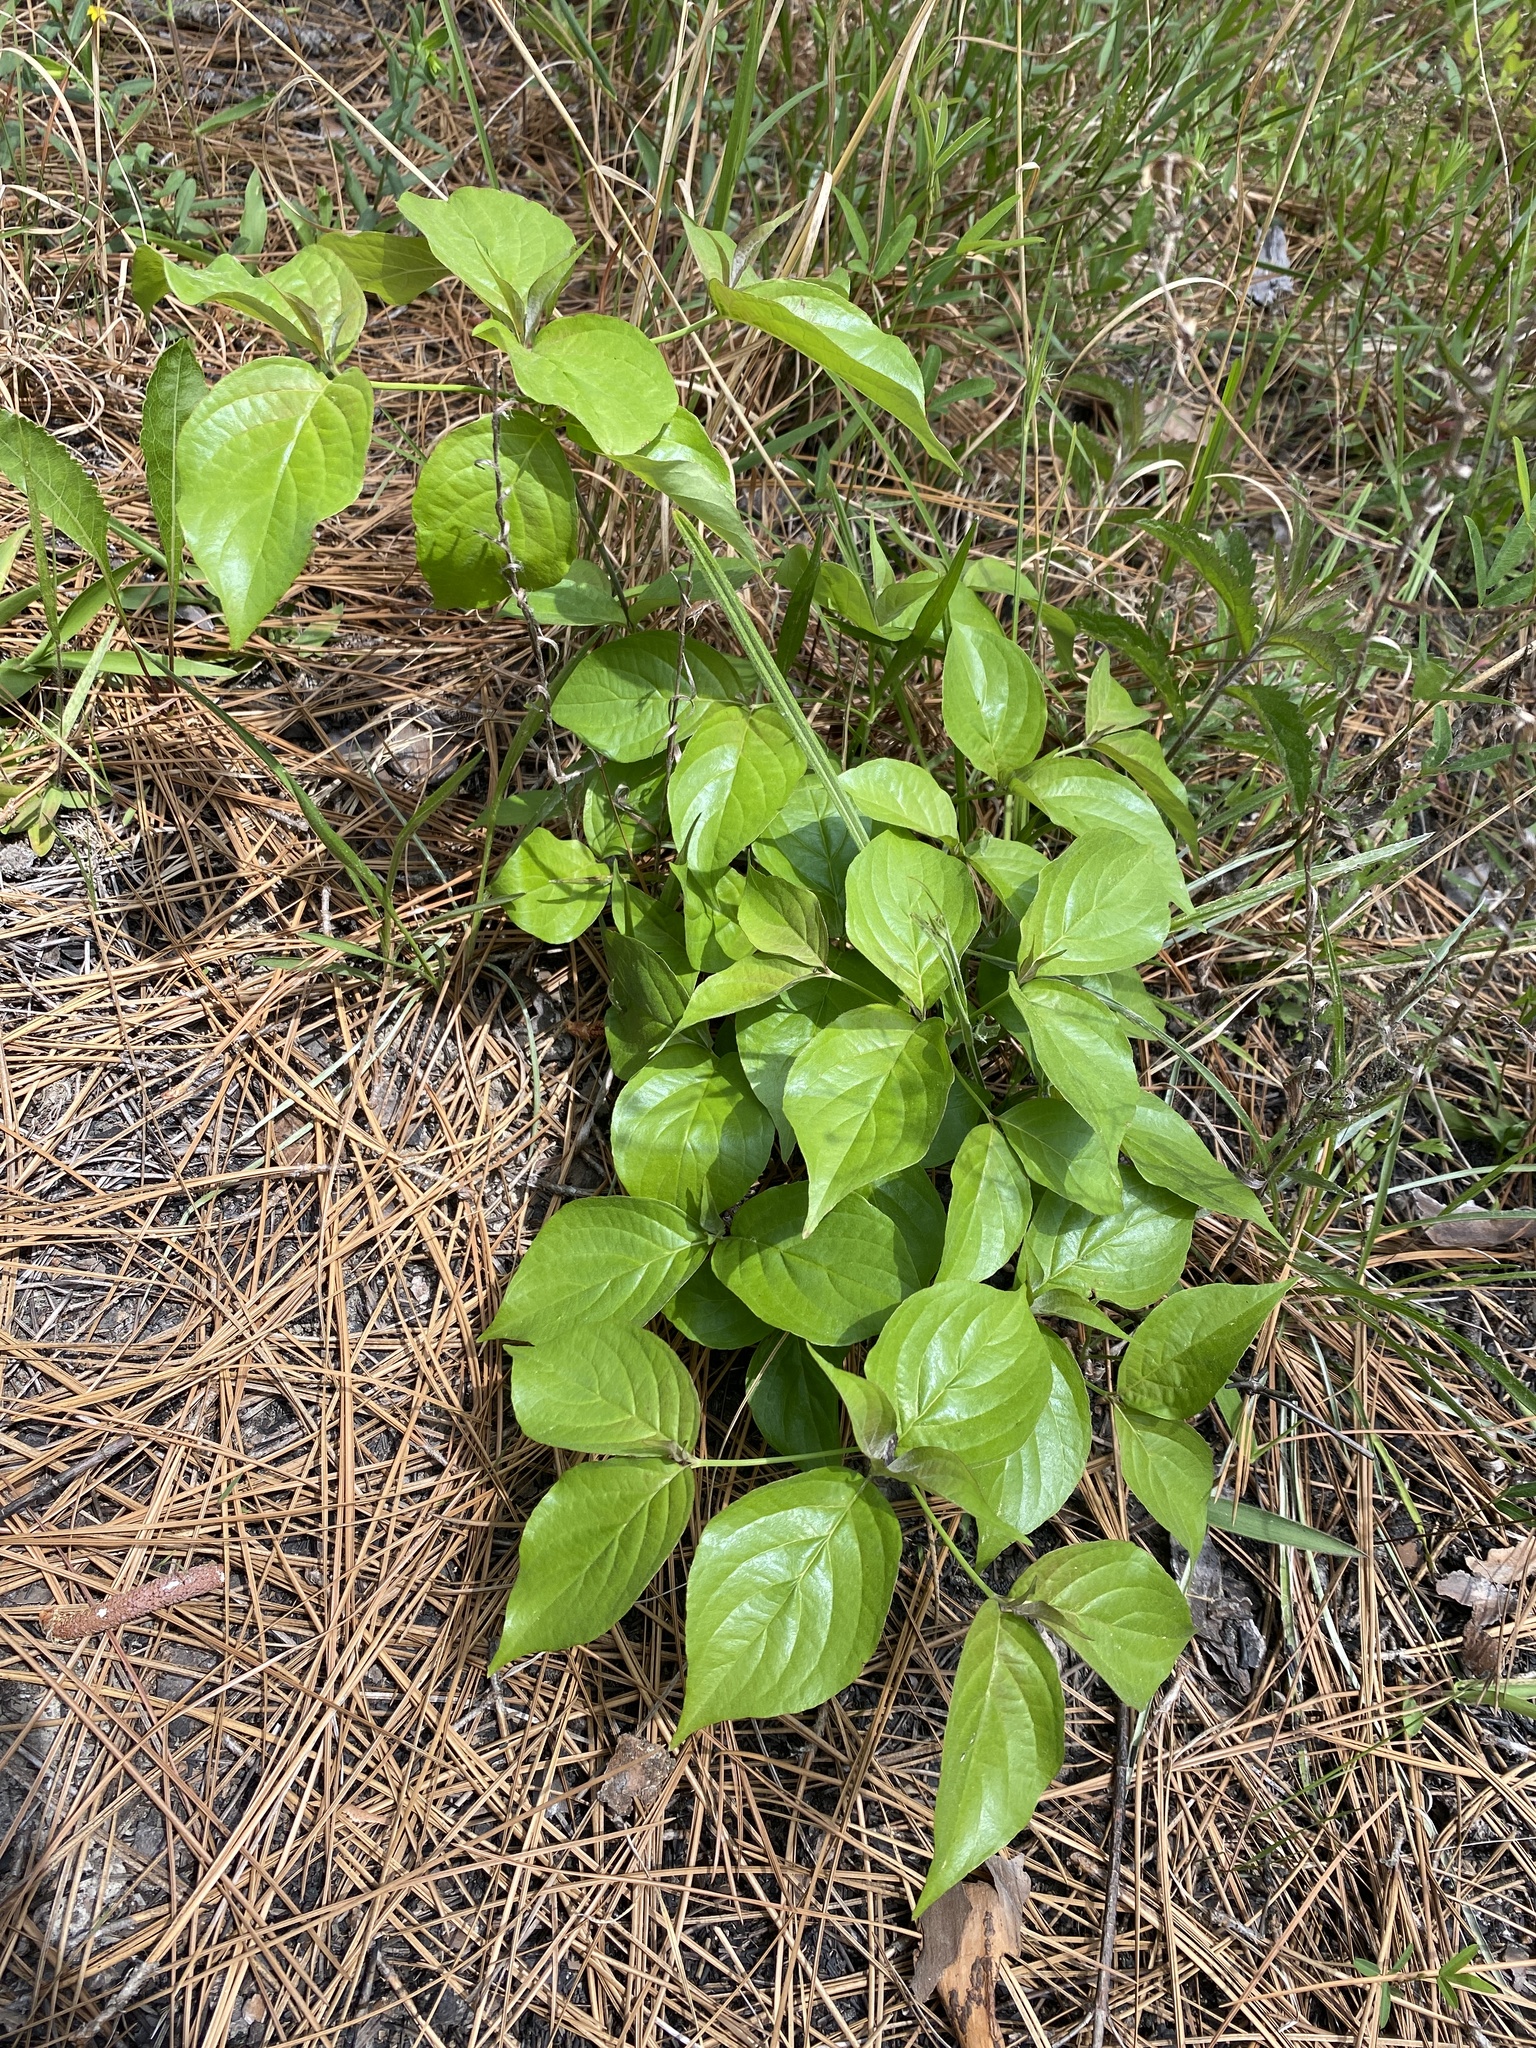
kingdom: Plantae
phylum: Tracheophyta
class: Magnoliopsida
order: Cornales
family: Cornaceae
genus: Cornus
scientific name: Cornus florida
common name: Flowering dogwood
